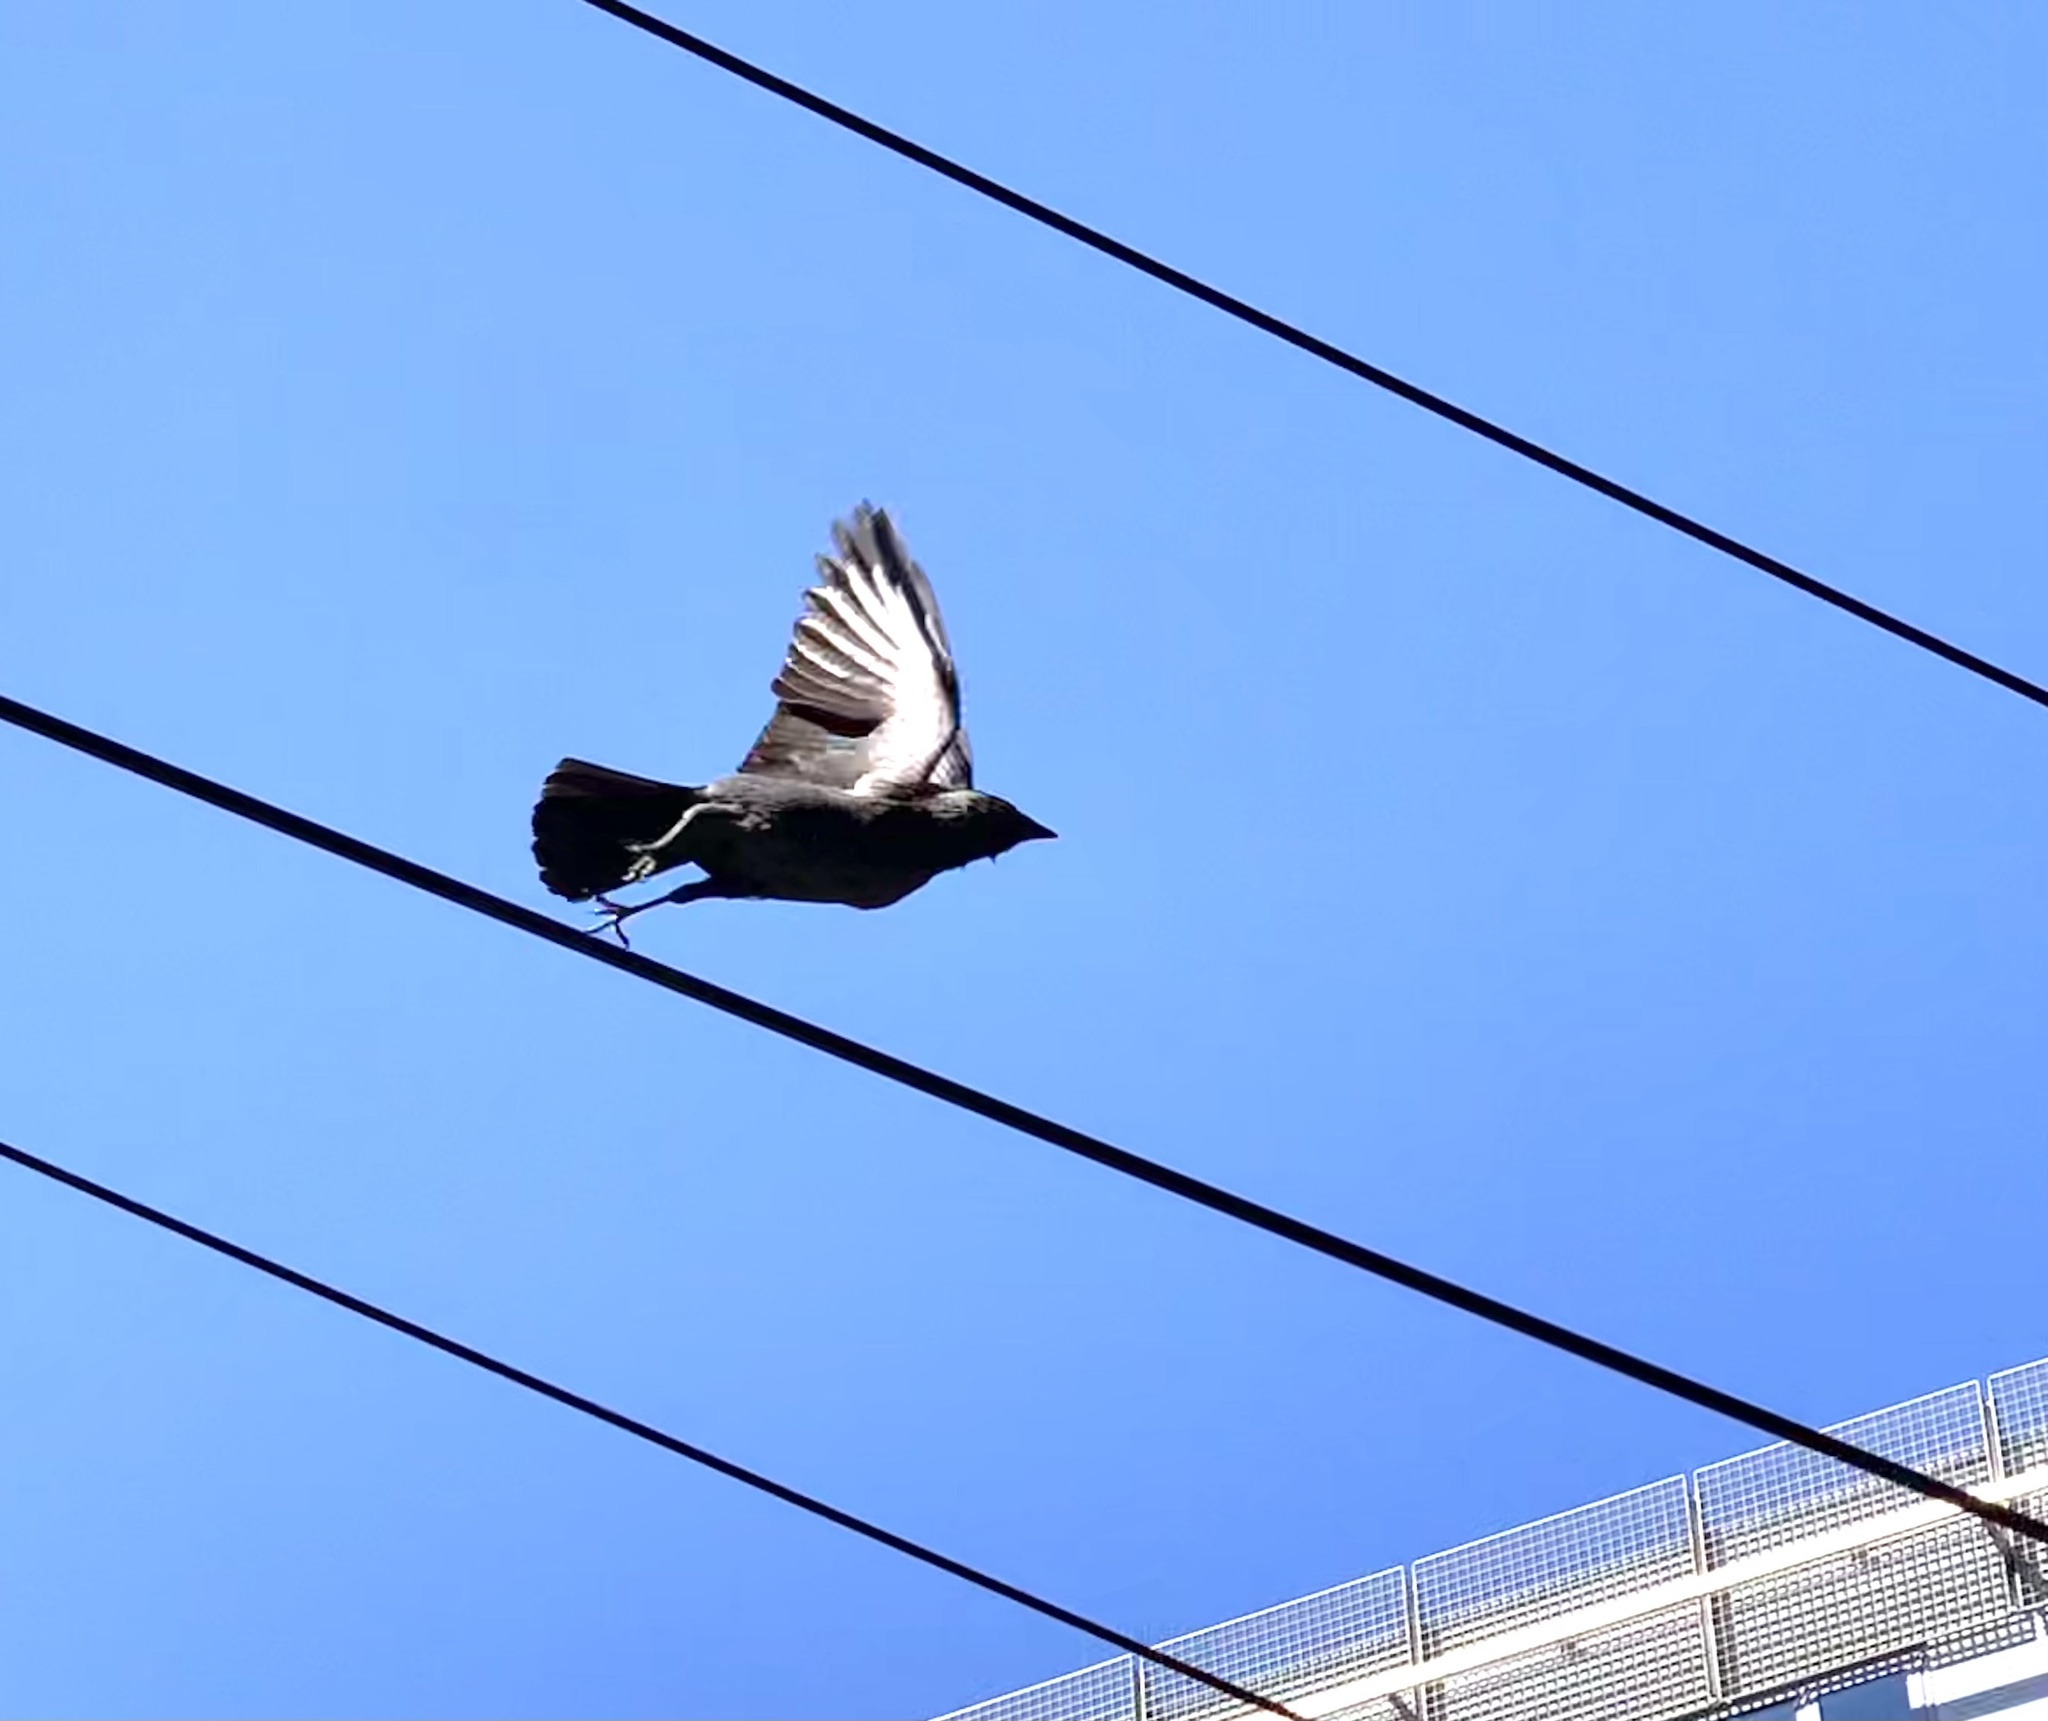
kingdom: Animalia
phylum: Chordata
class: Aves
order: Passeriformes
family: Corvidae
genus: Coloeus
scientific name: Coloeus monedula
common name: Western jackdaw
